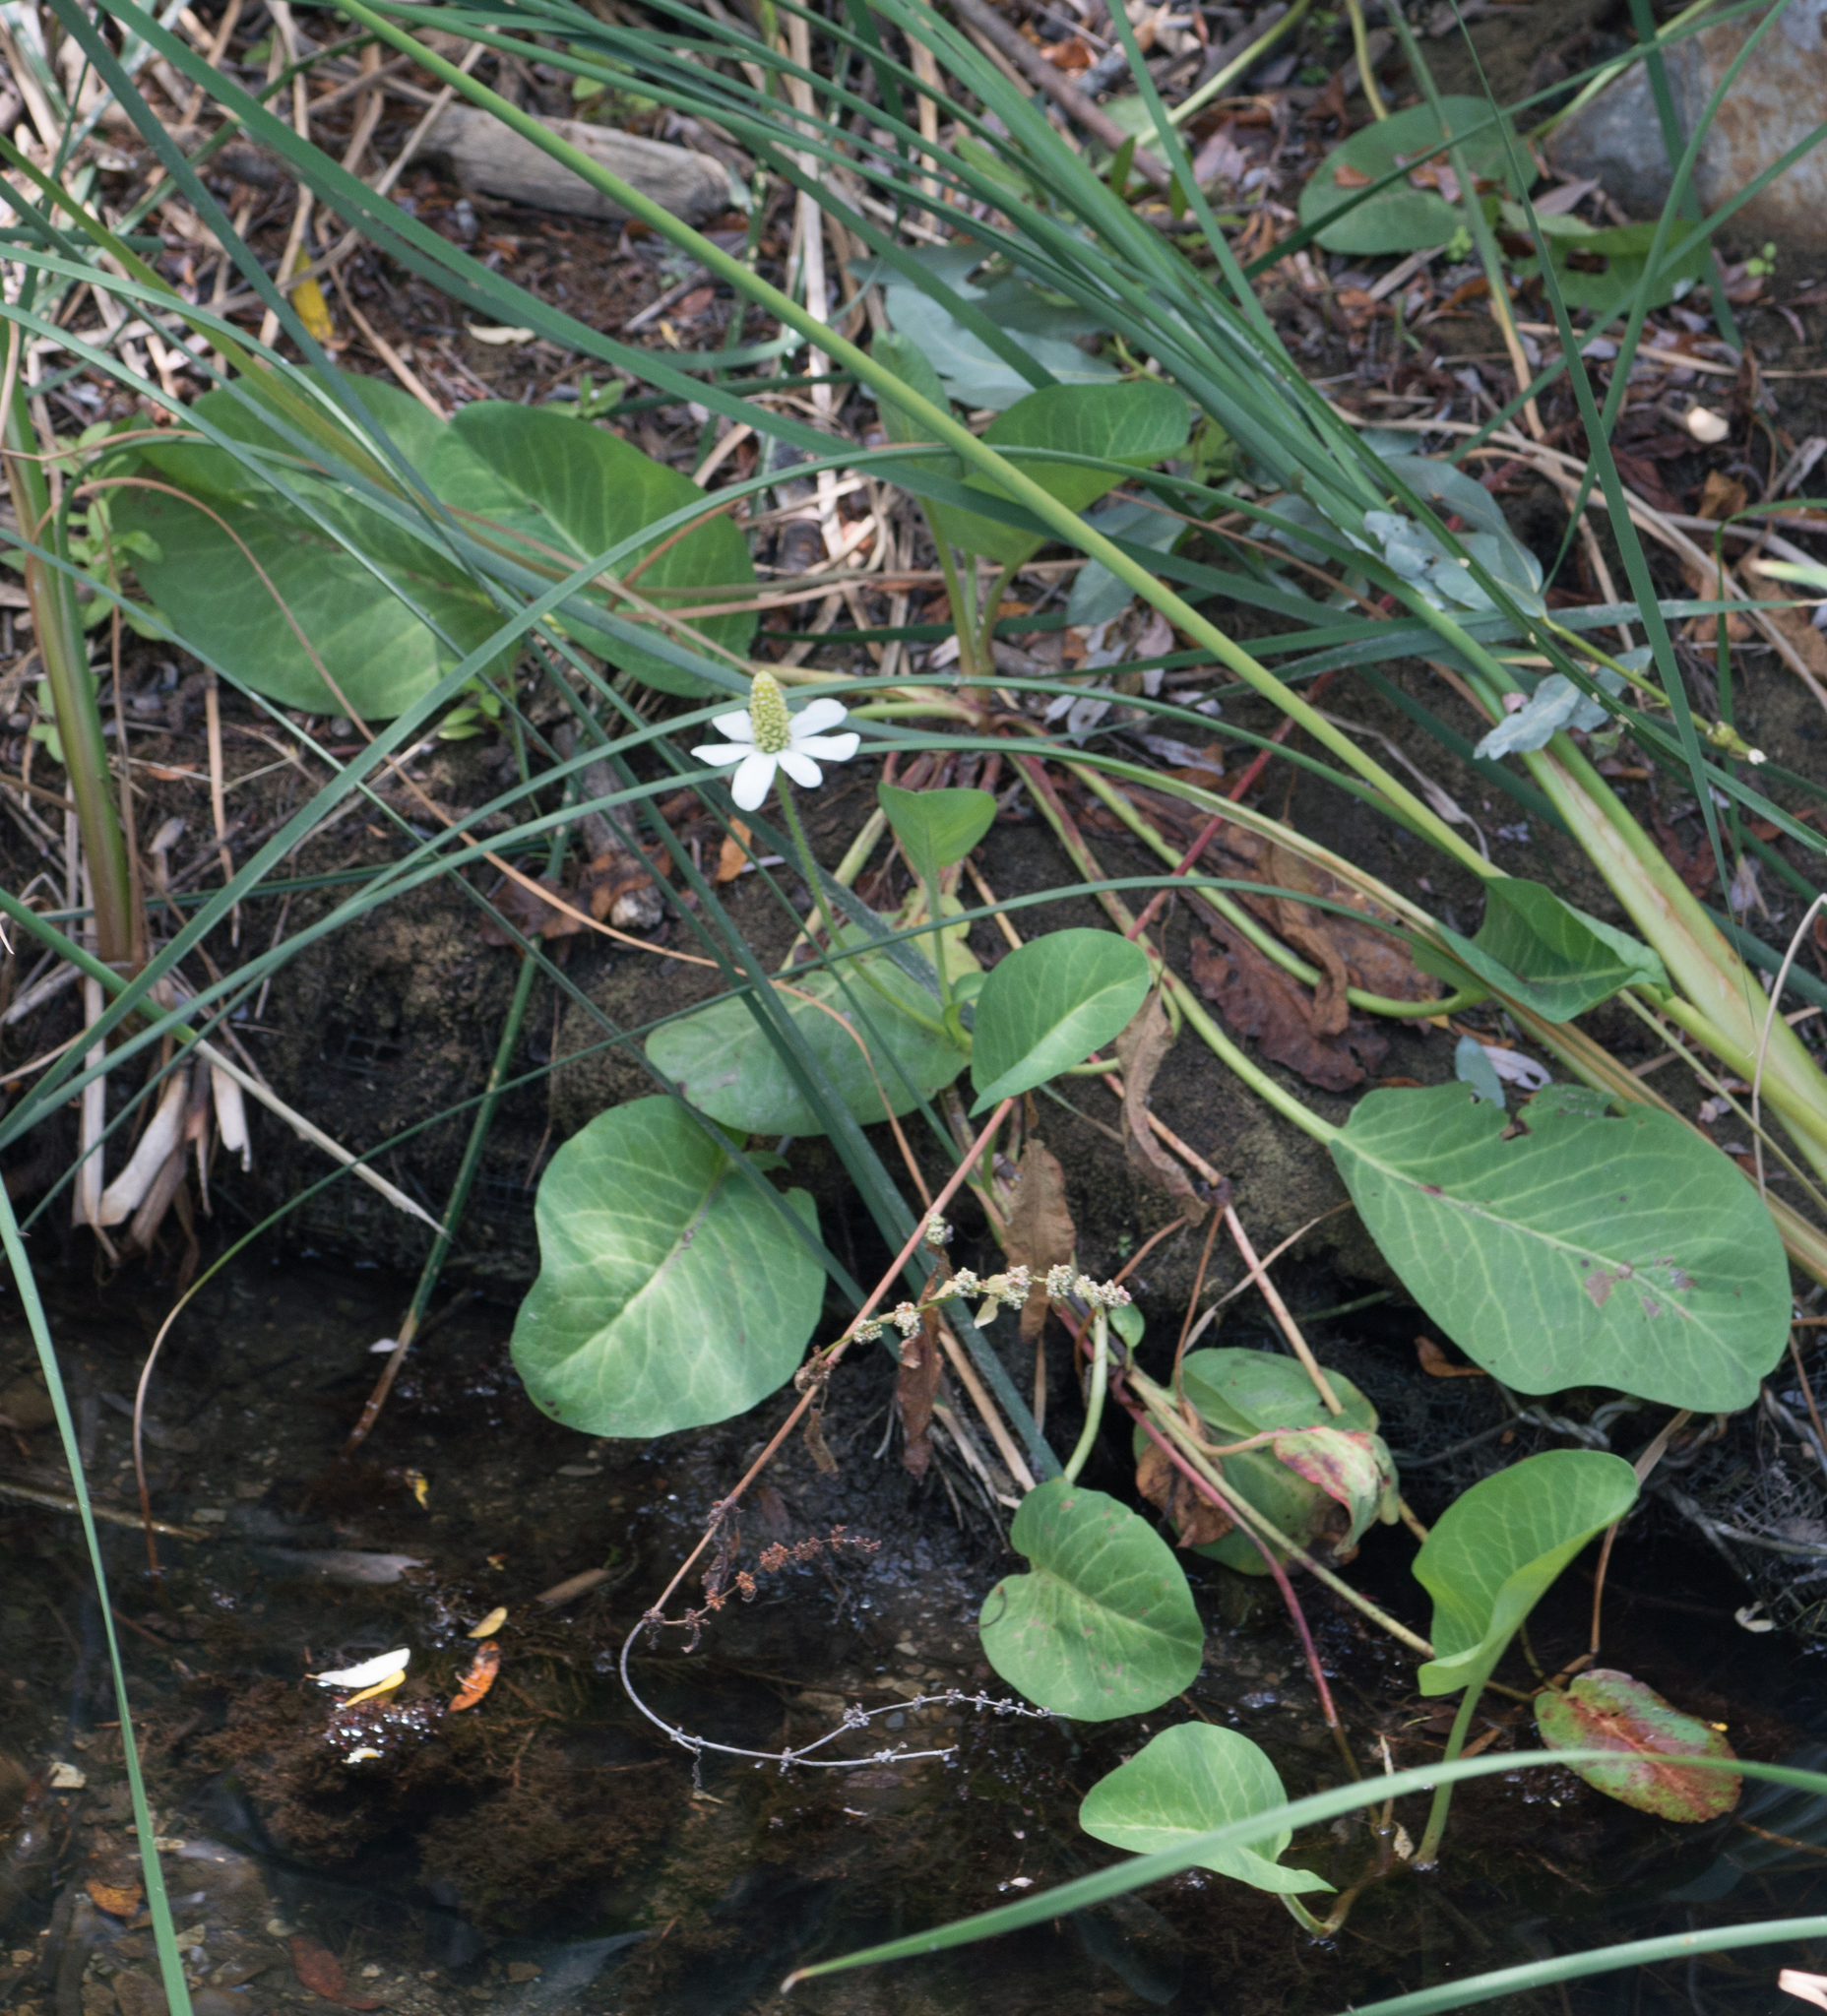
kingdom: Plantae
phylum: Tracheophyta
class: Magnoliopsida
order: Piperales
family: Saururaceae
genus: Anemopsis
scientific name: Anemopsis californica
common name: Apache-beads
